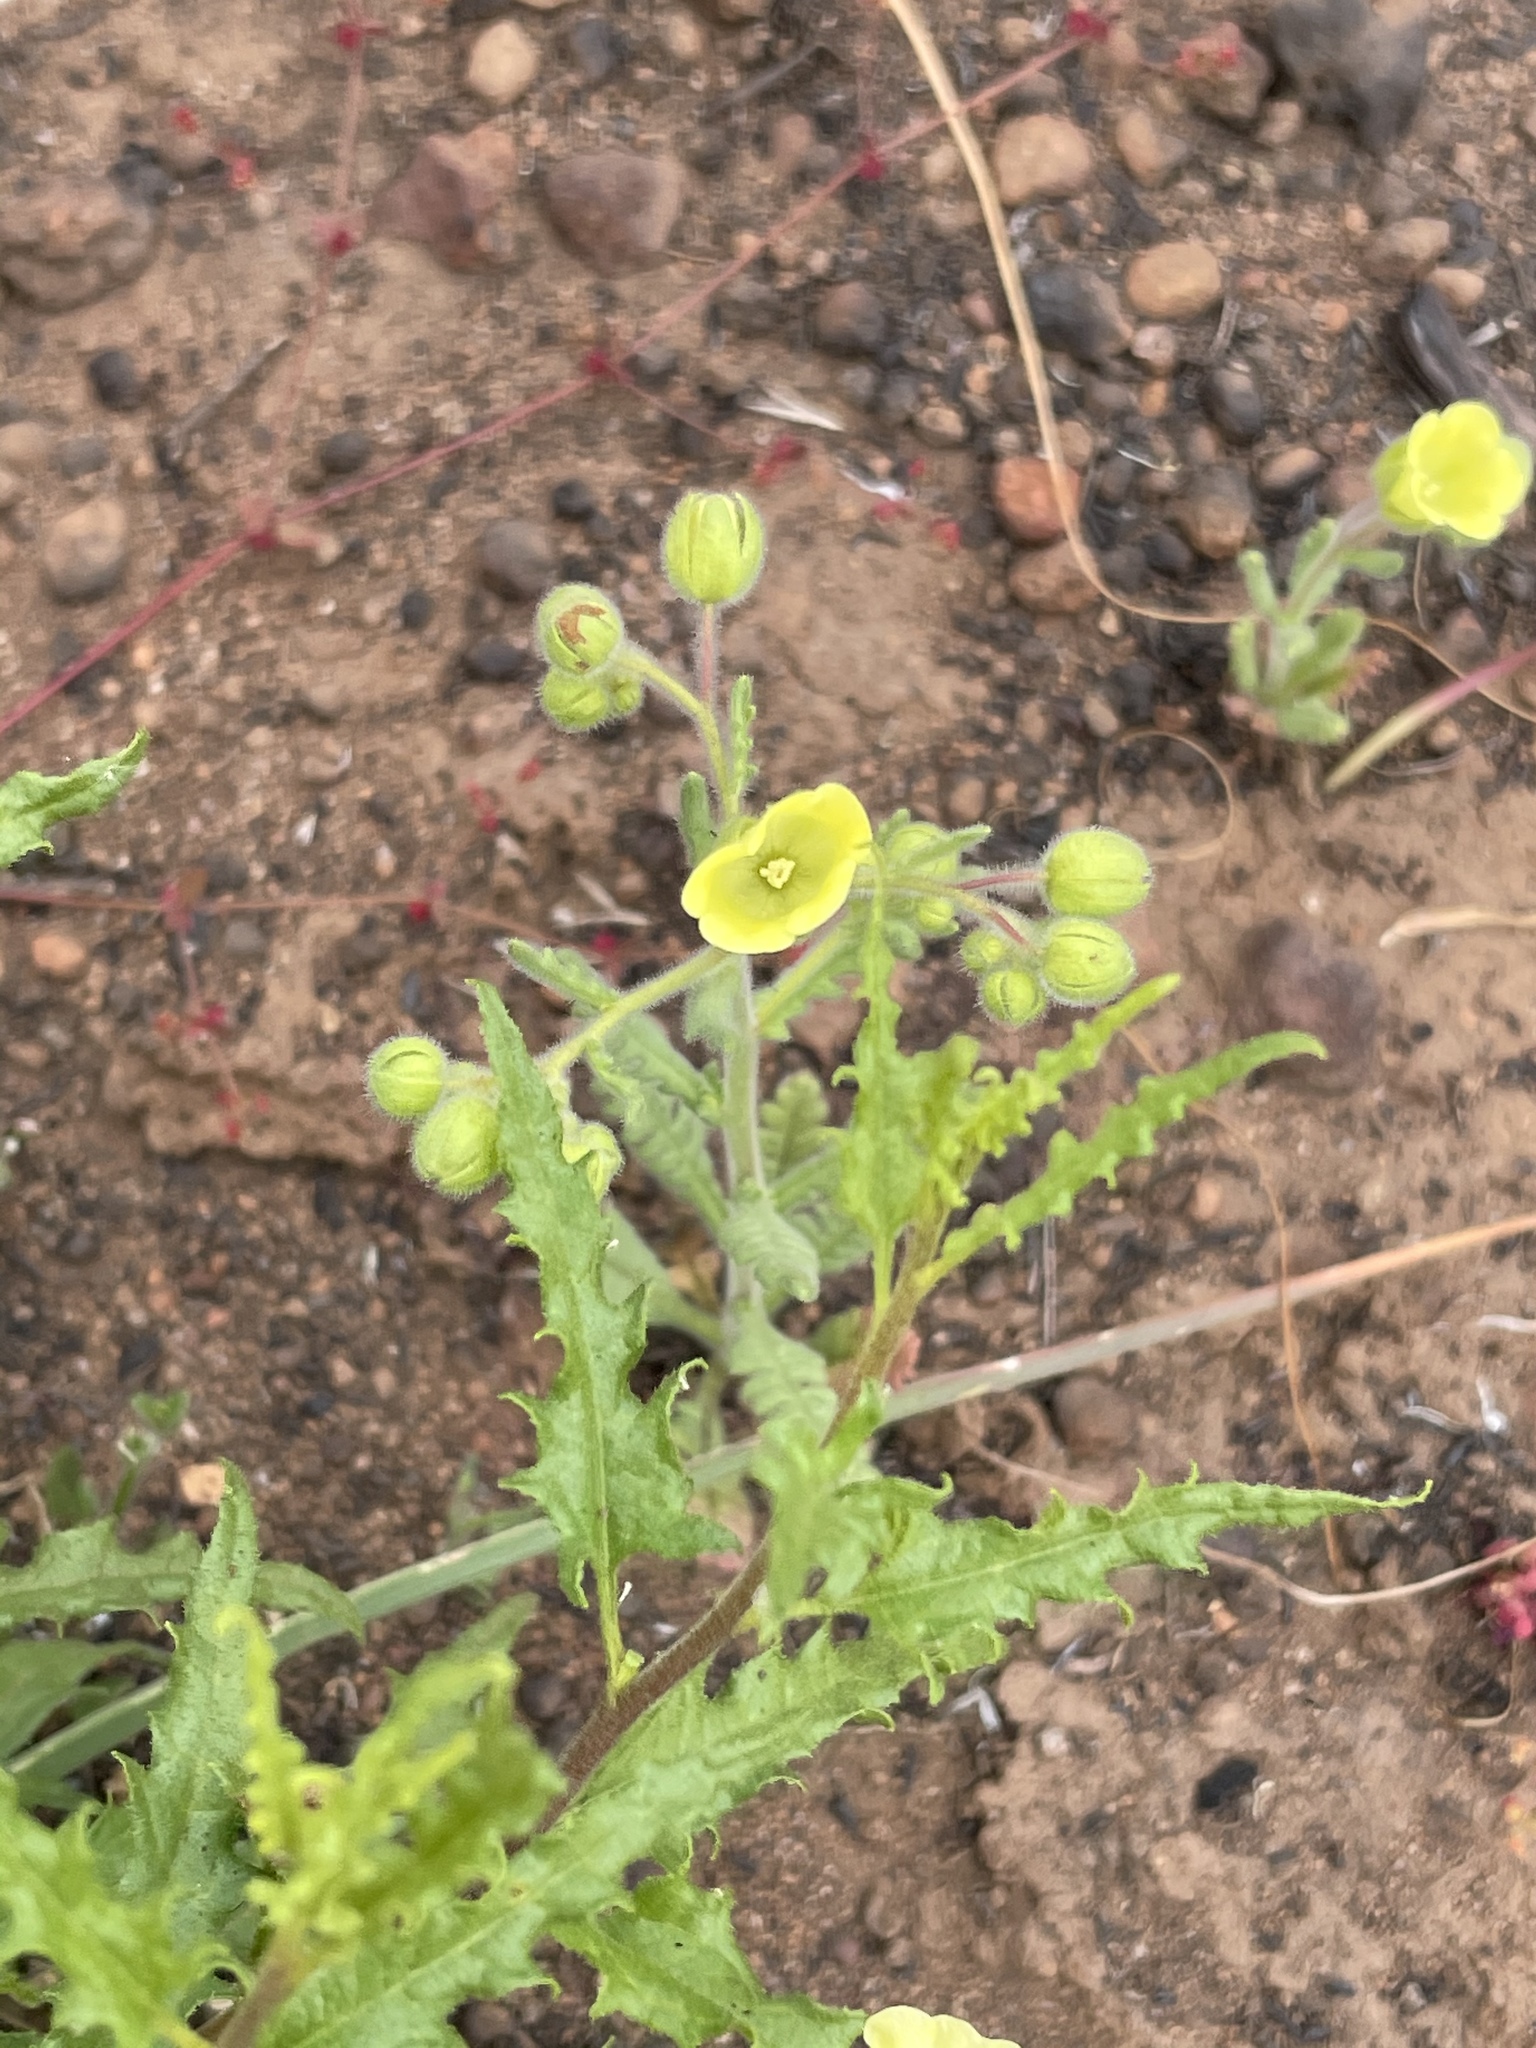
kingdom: Plantae
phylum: Tracheophyta
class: Magnoliopsida
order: Boraginales
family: Hydrophyllaceae
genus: Emmenanthe
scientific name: Emmenanthe penduliflora
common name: Whispering-bells
